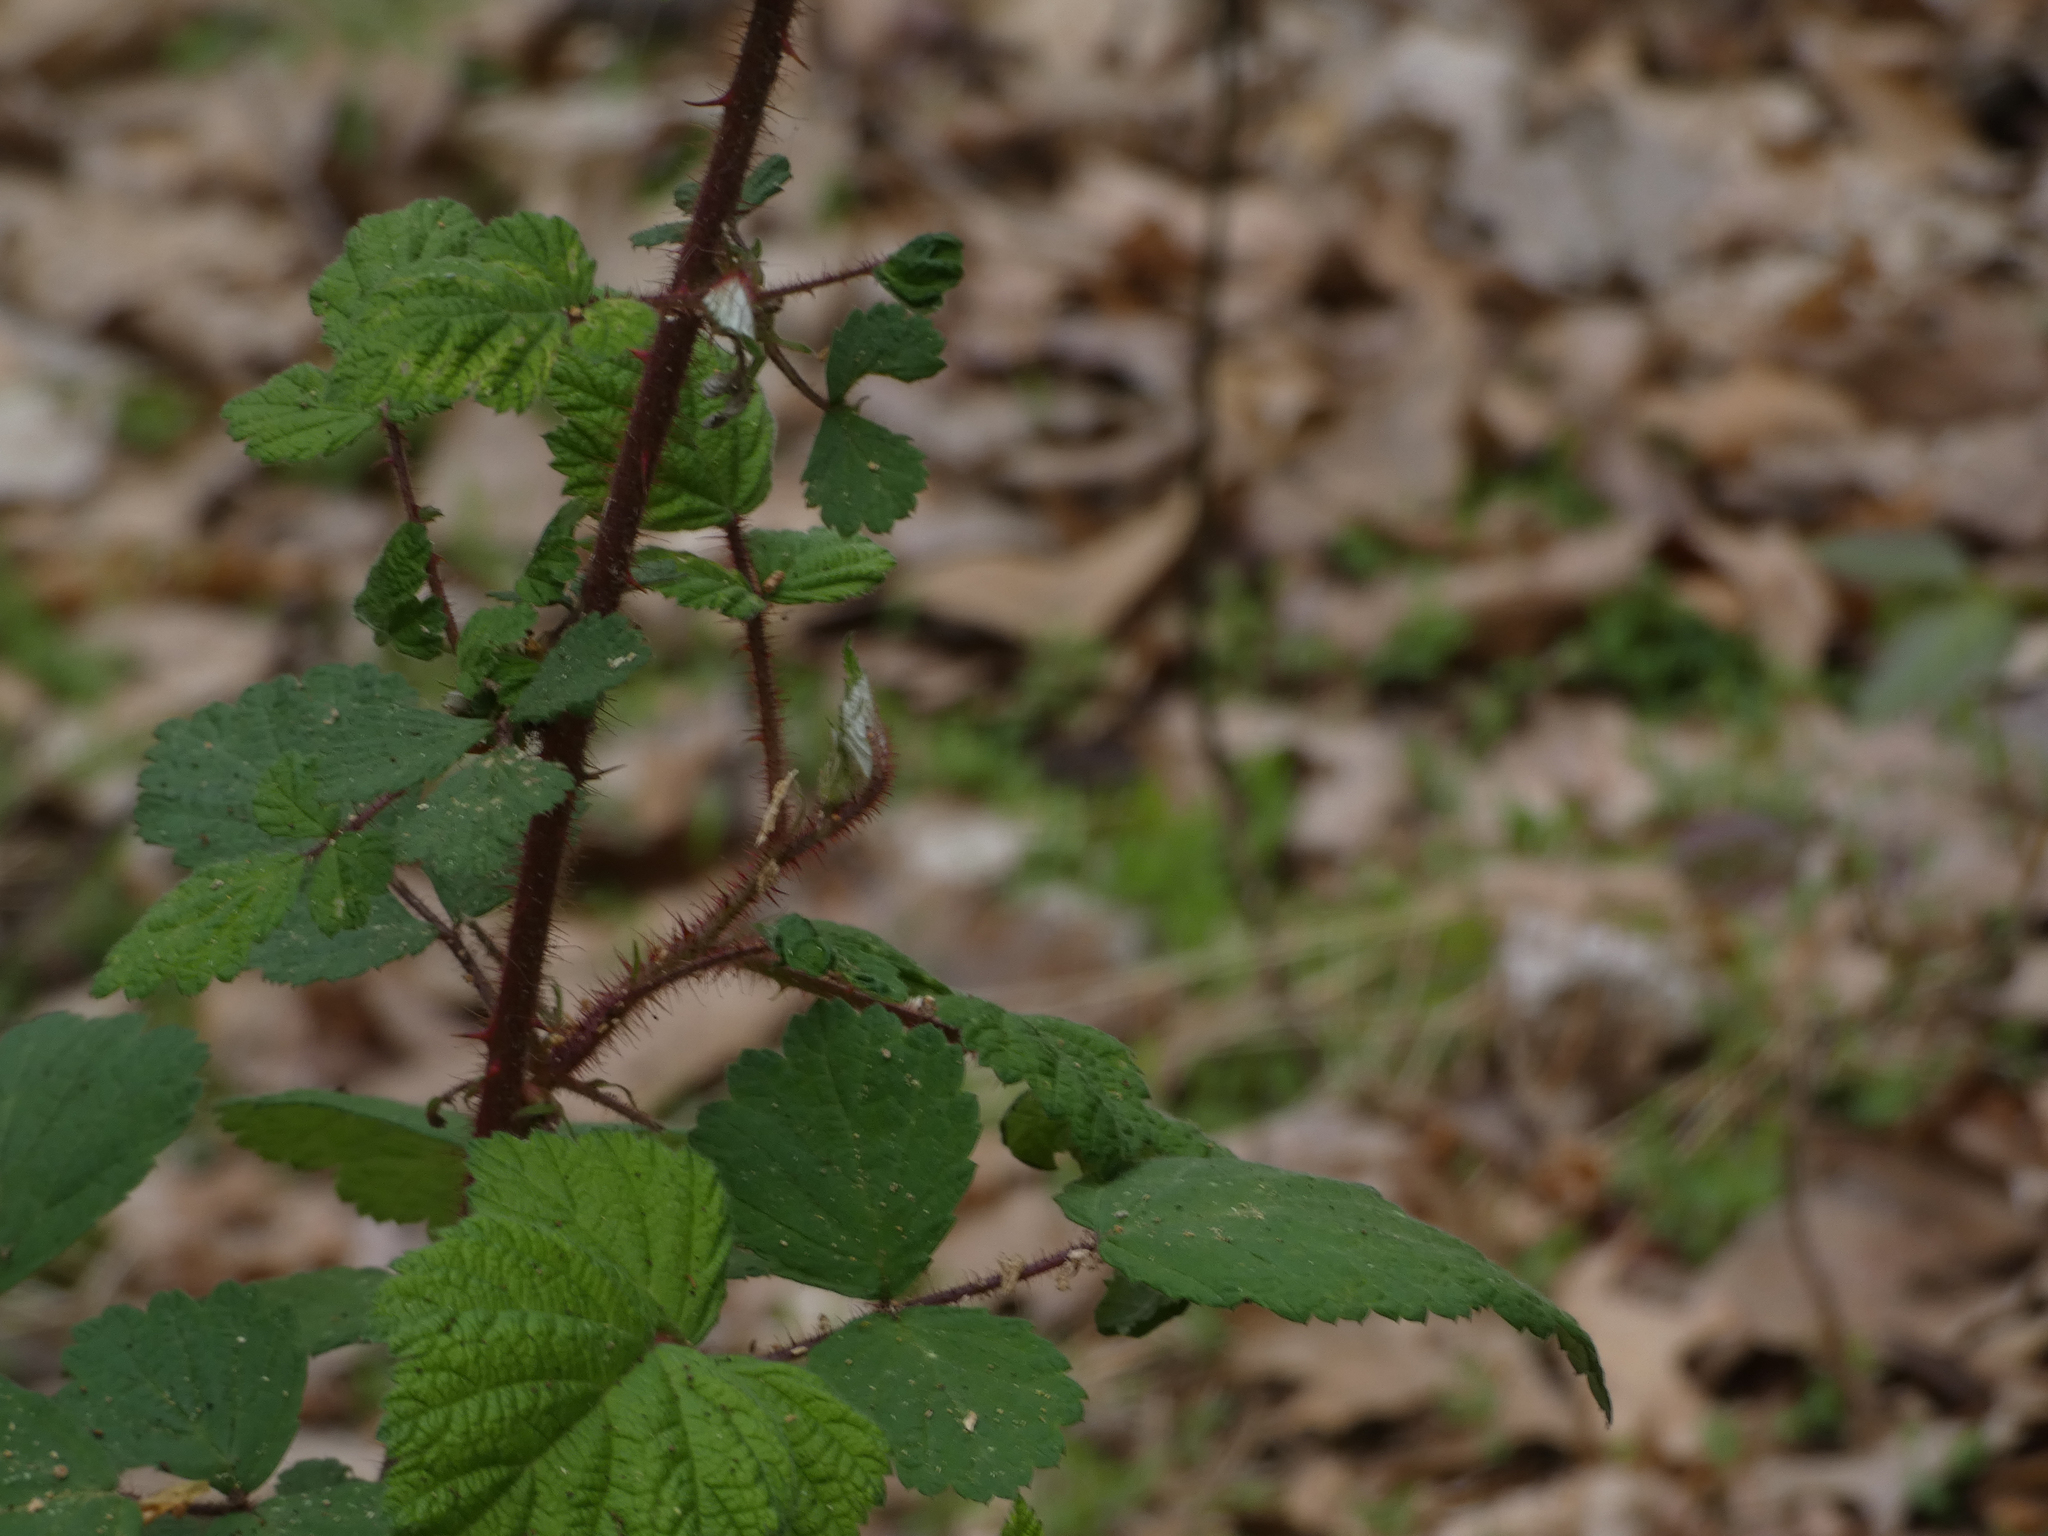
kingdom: Plantae
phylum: Tracheophyta
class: Magnoliopsida
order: Rosales
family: Rosaceae
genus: Rubus
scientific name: Rubus phoenicolasius
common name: Japanese wineberry
